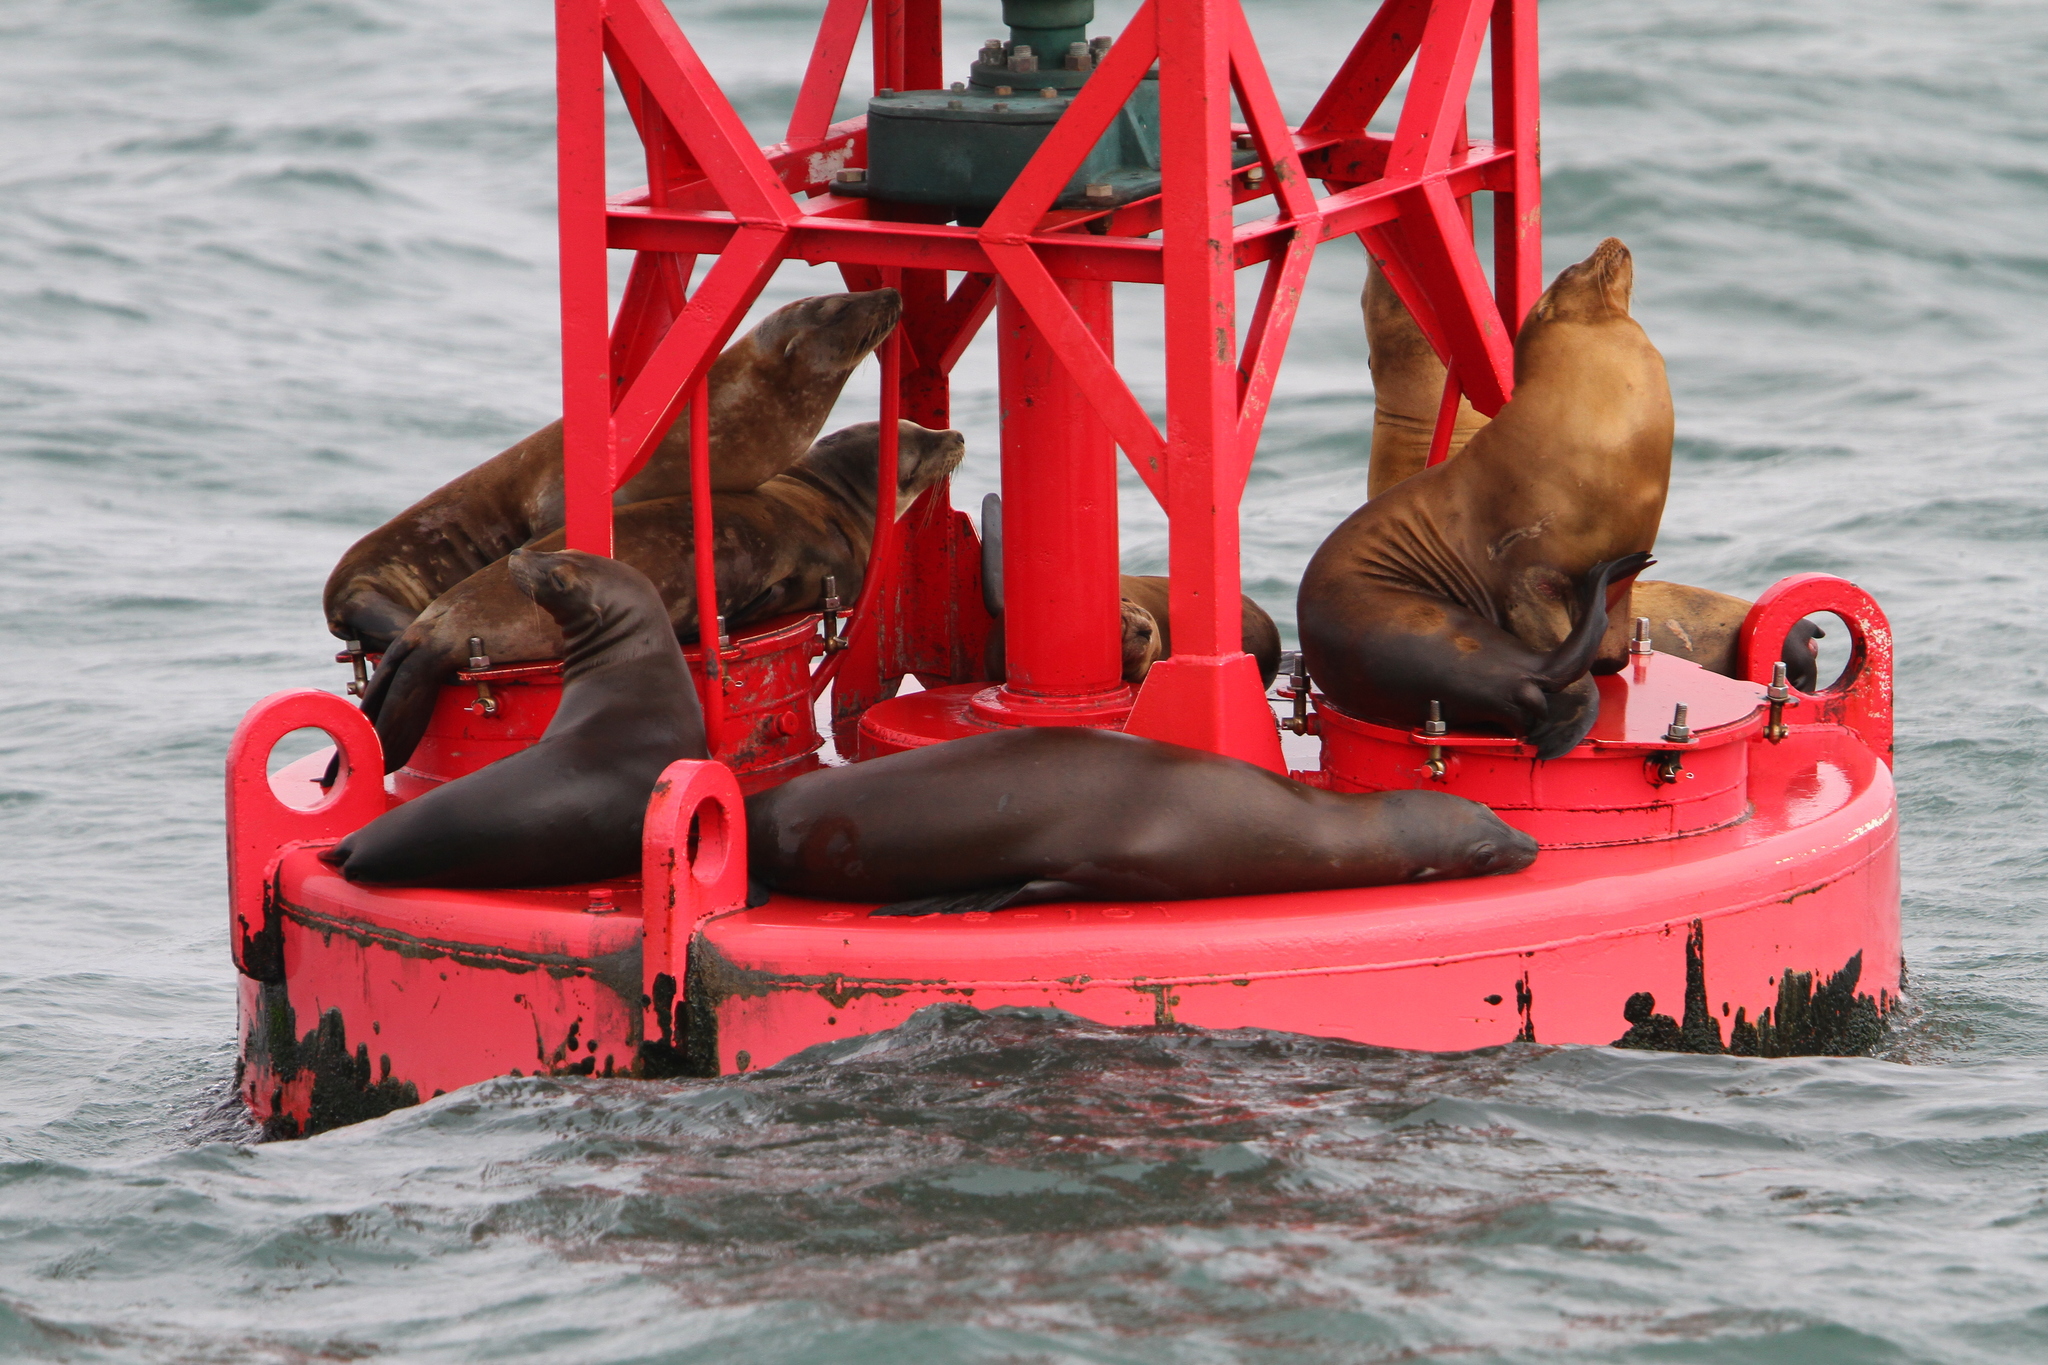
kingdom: Animalia
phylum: Chordata
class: Mammalia
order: Carnivora
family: Otariidae
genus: Zalophus
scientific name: Zalophus californianus
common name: California sea lion
